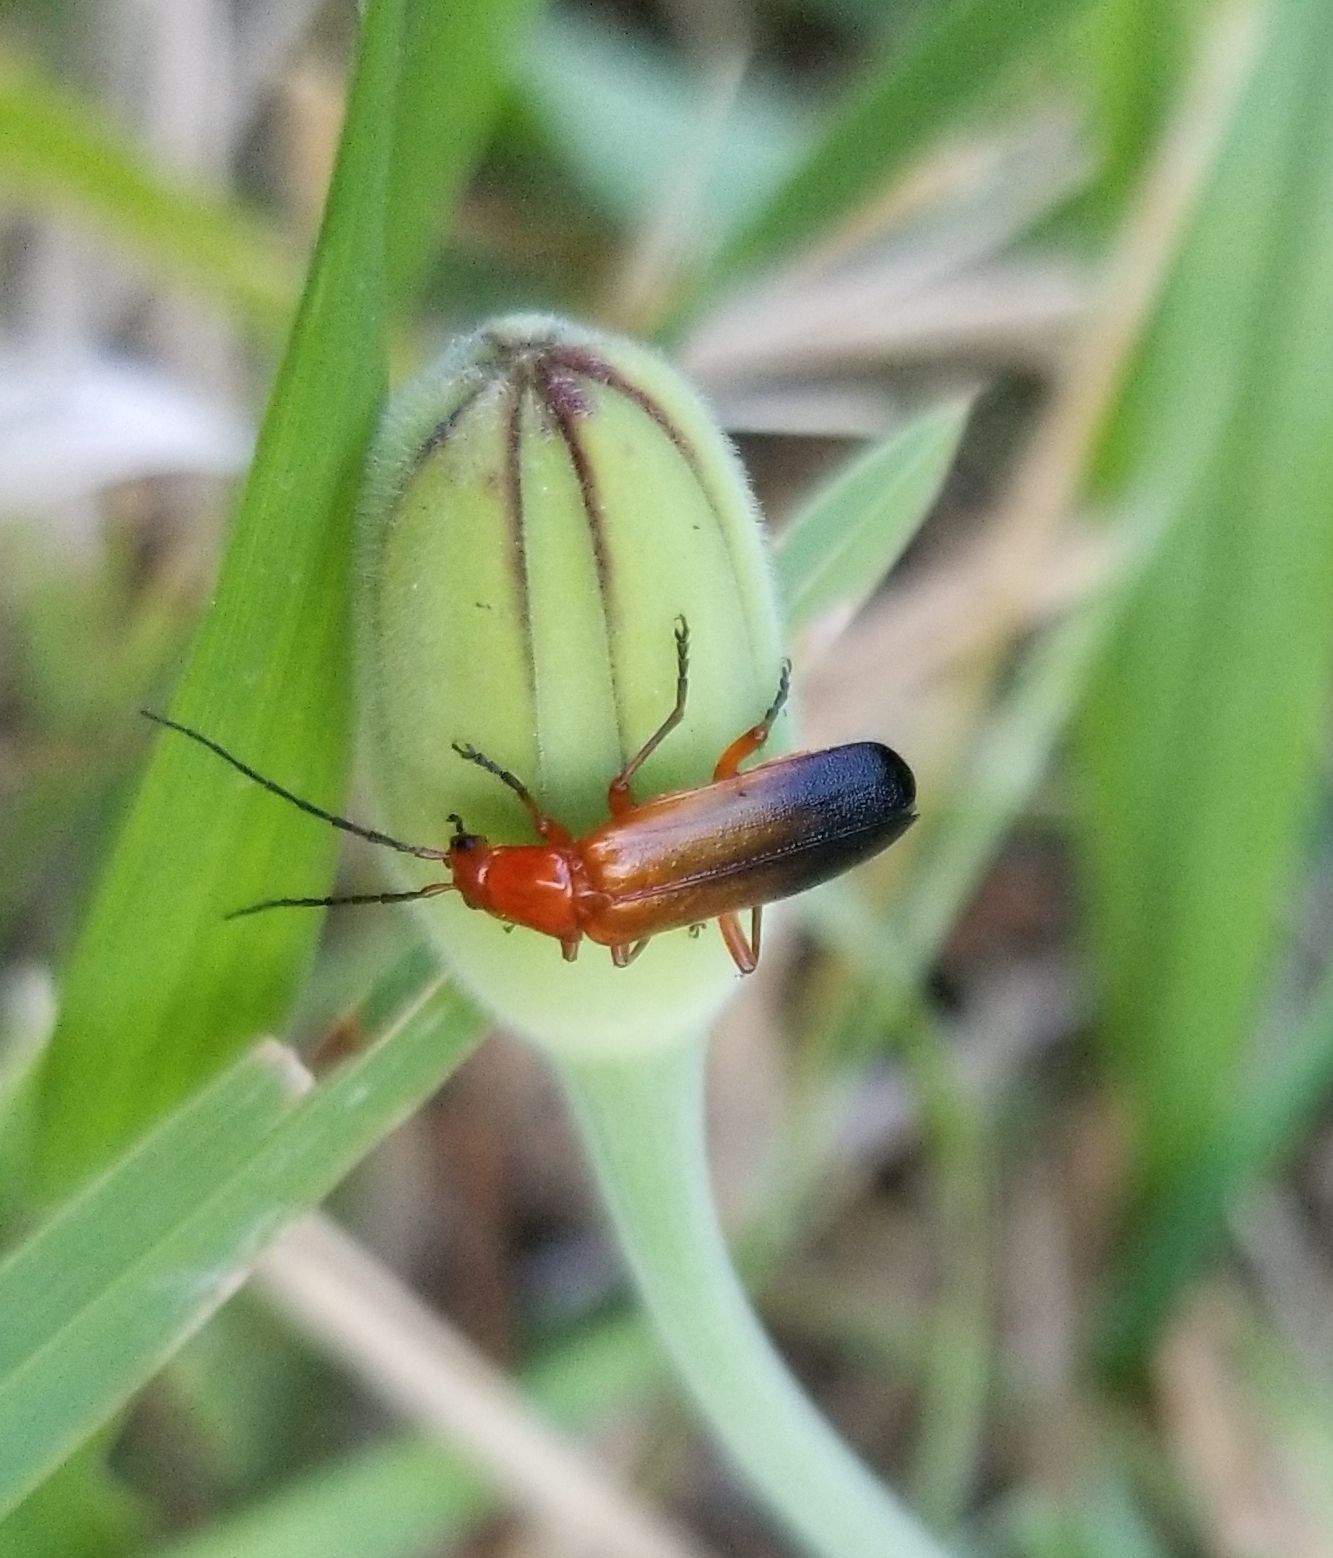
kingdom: Animalia
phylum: Arthropoda
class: Insecta
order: Coleoptera
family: Cantharidae
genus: Rhagonycha
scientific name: Rhagonycha fulva
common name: Common red soldier beetle
